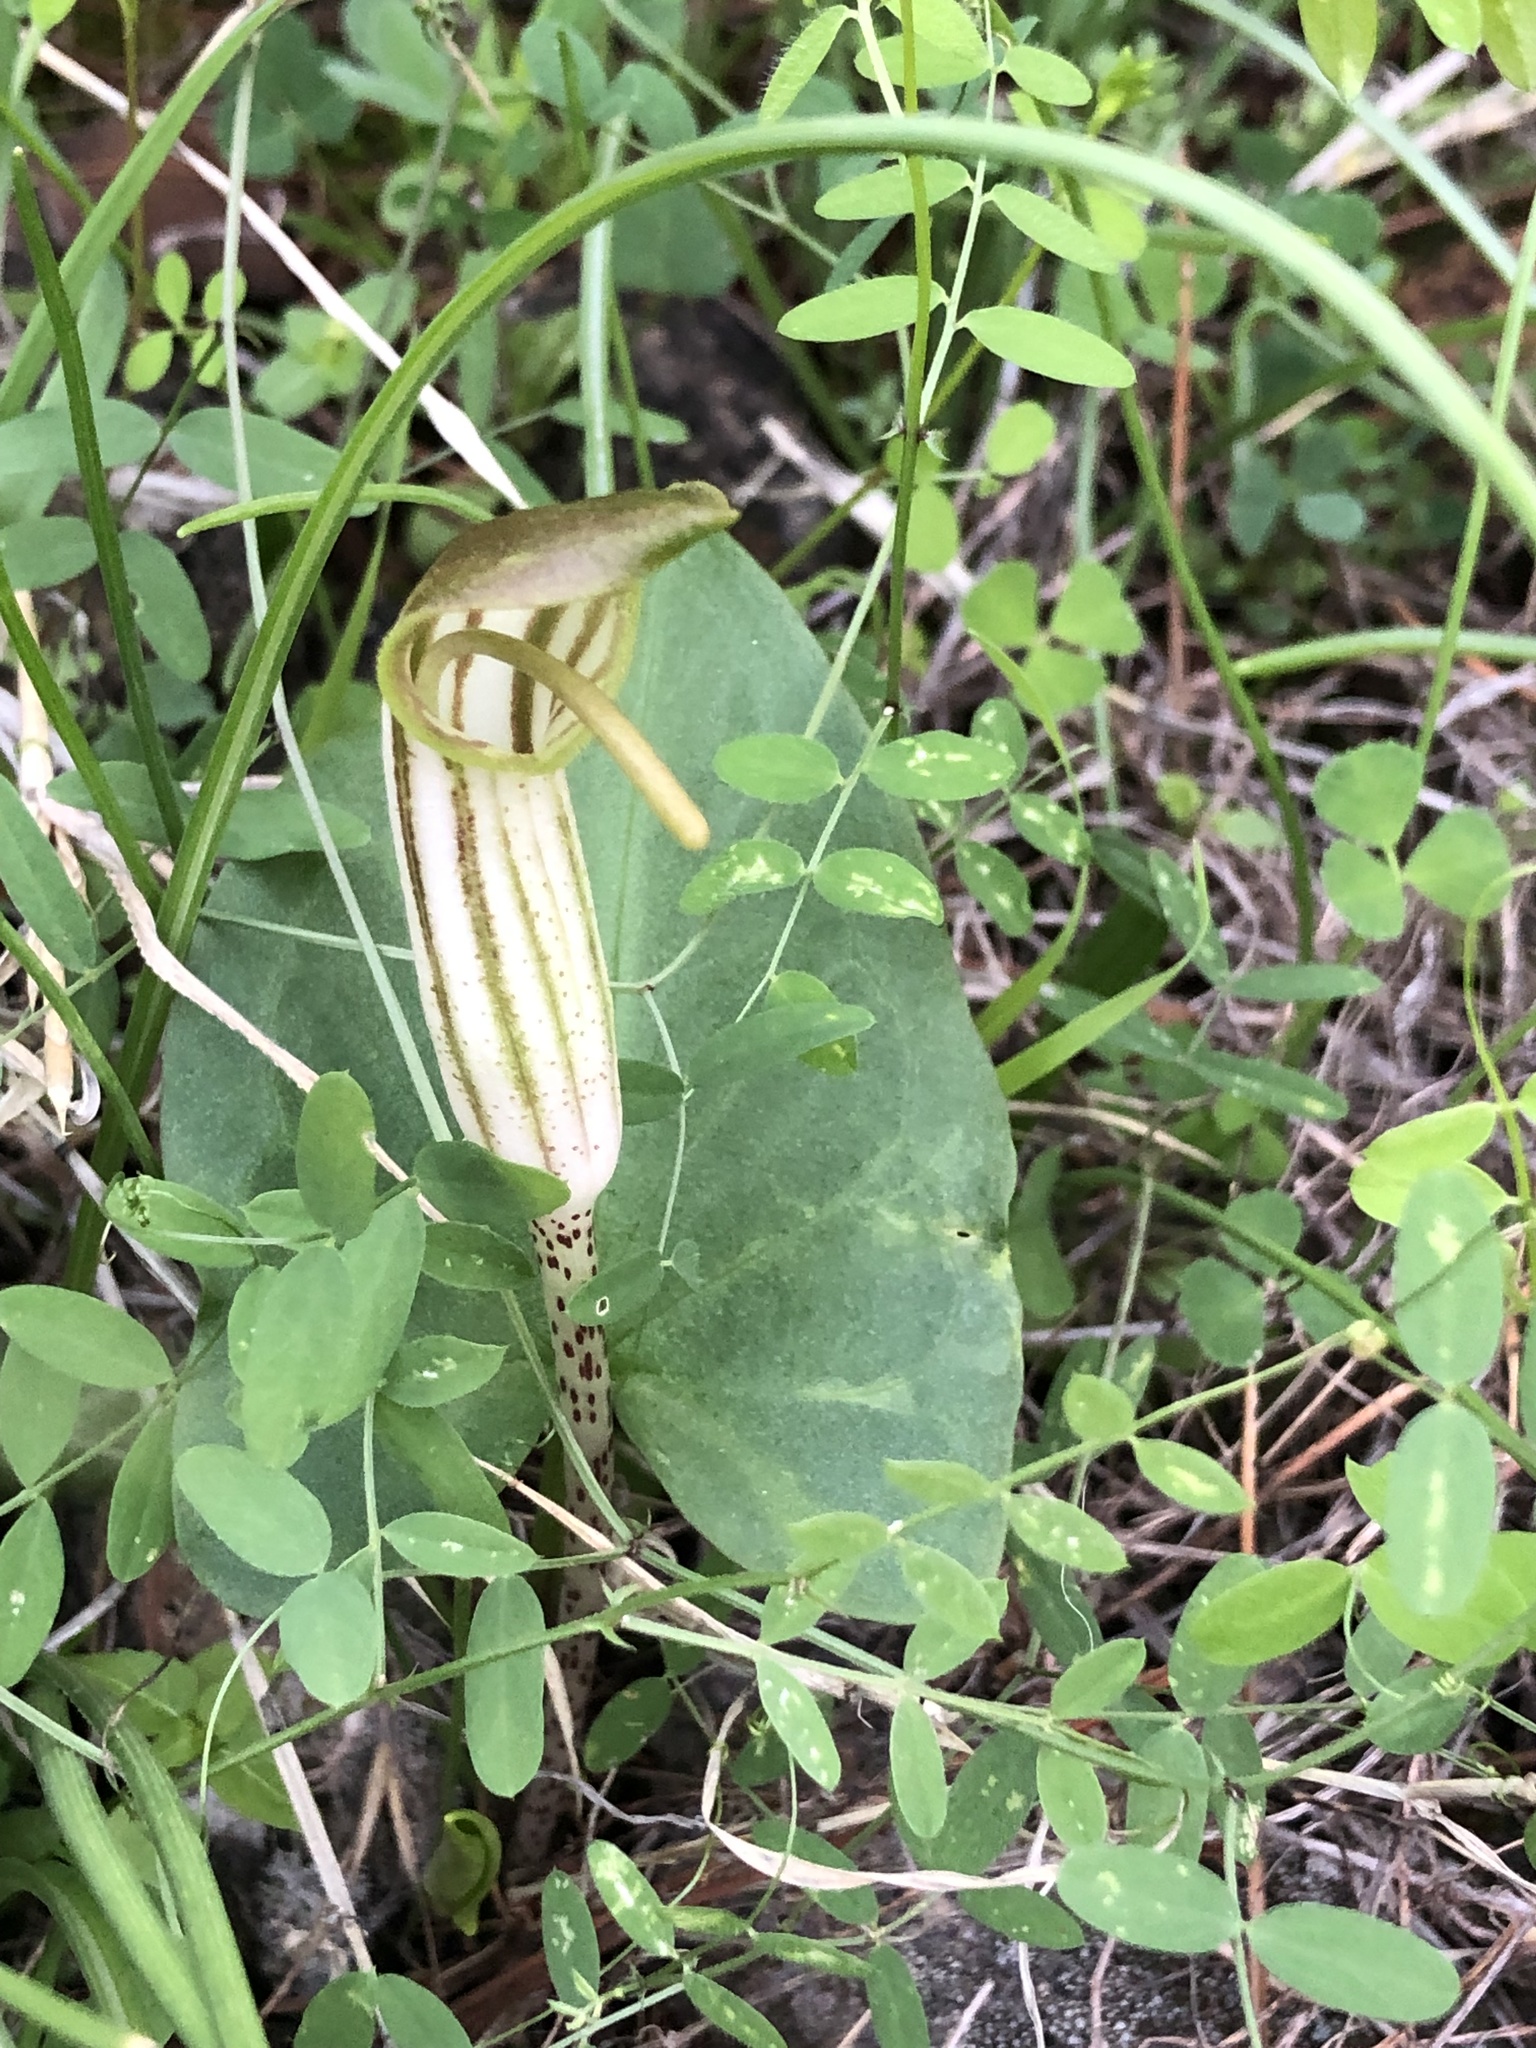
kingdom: Plantae
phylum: Tracheophyta
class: Liliopsida
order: Alismatales
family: Araceae
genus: Arisarum
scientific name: Arisarum vulgare
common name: Common arisarum
